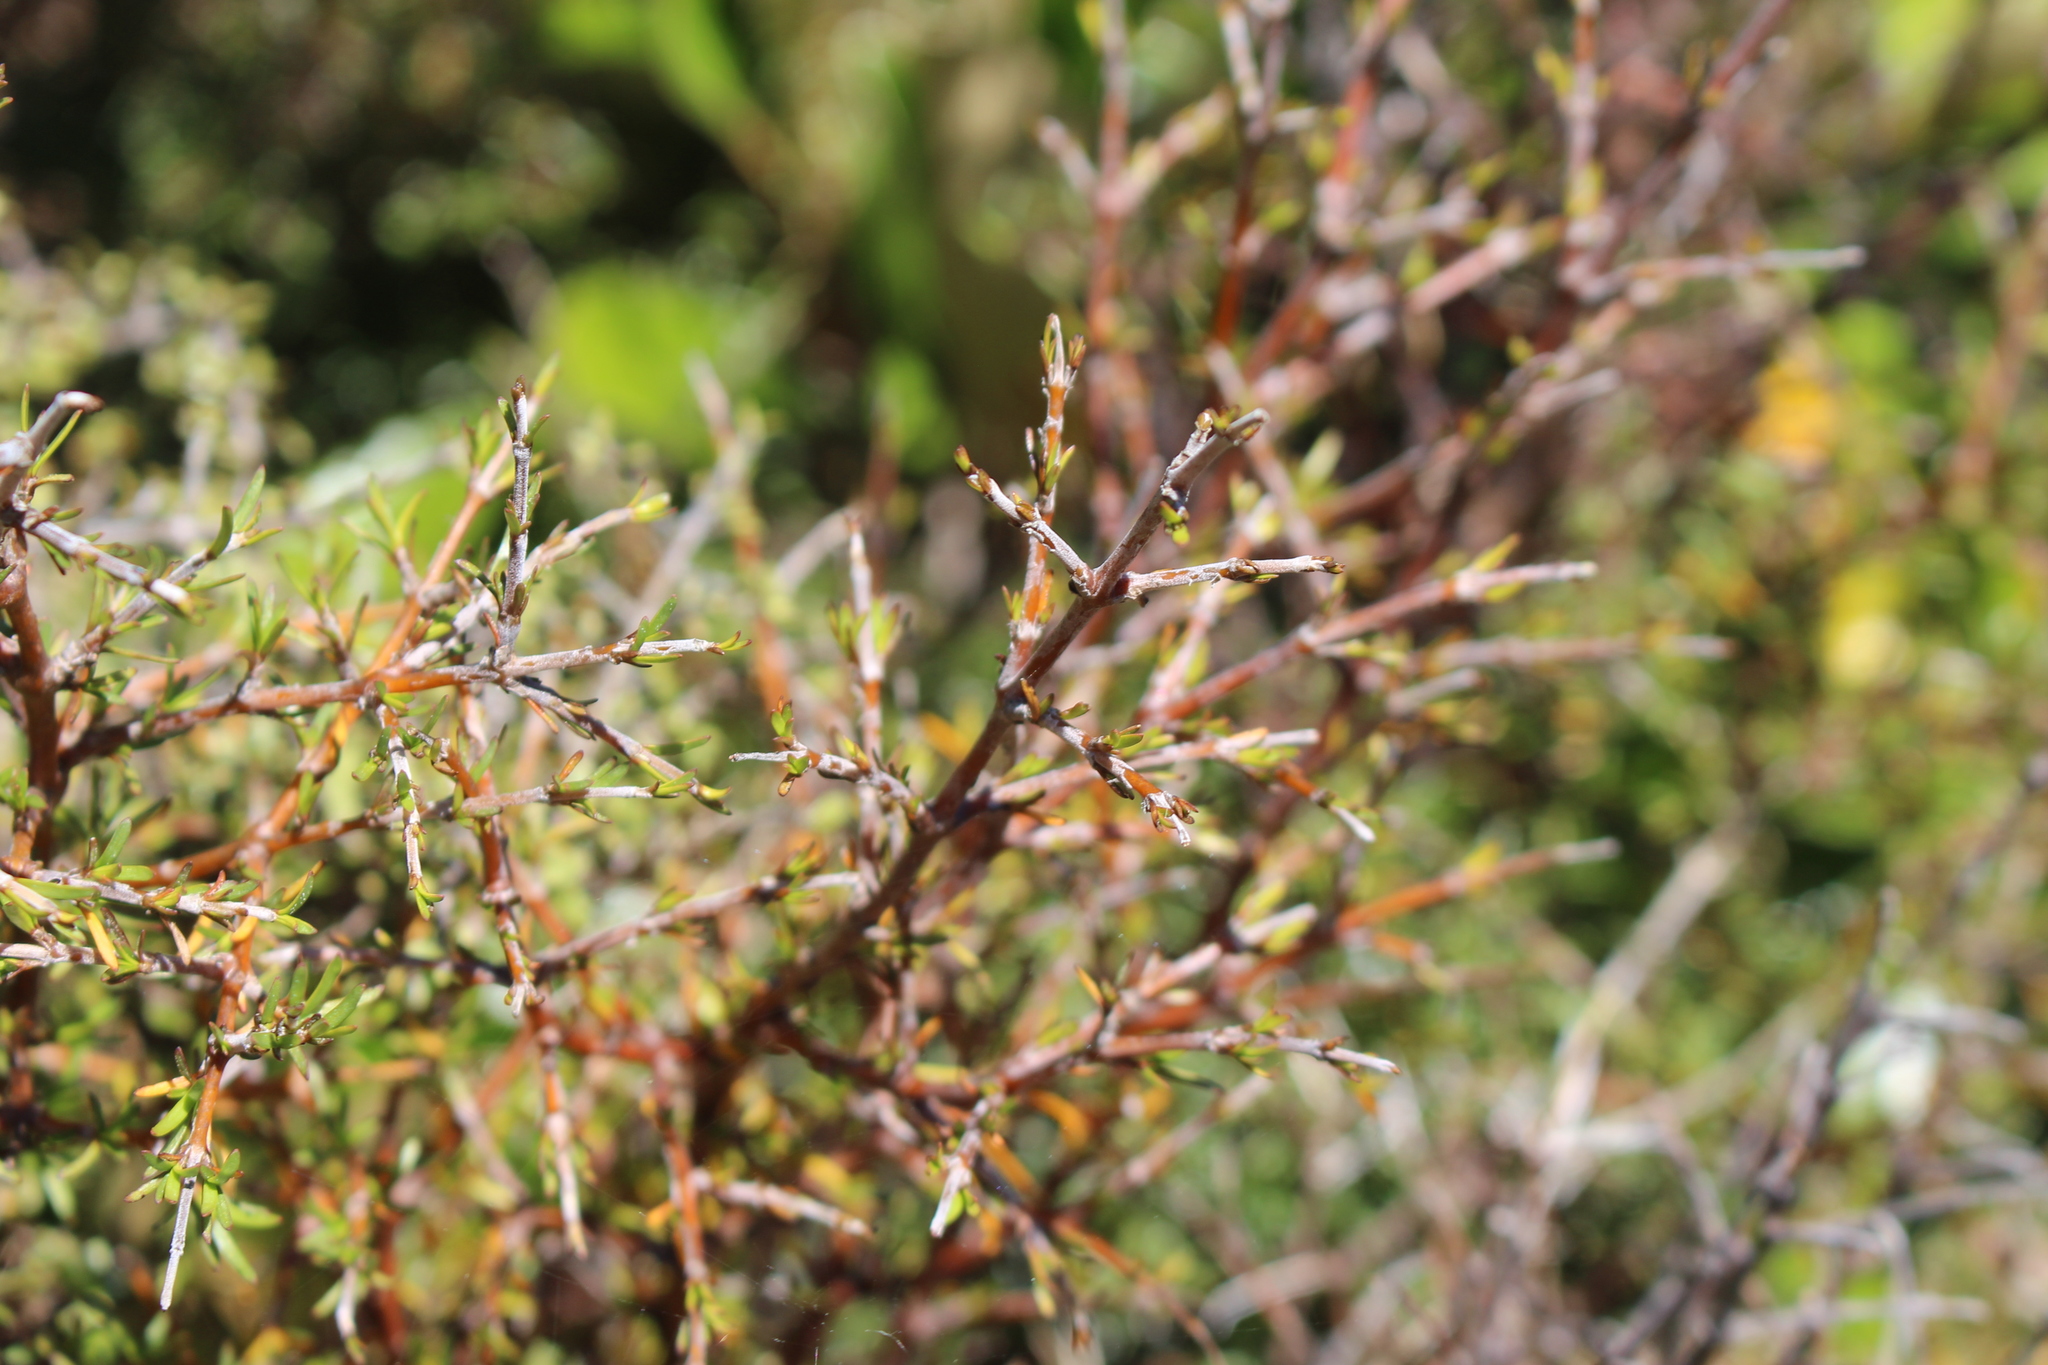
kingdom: Plantae
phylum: Tracheophyta
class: Magnoliopsida
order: Gentianales
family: Rubiaceae
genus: Coprosma
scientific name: Coprosma rugosa
